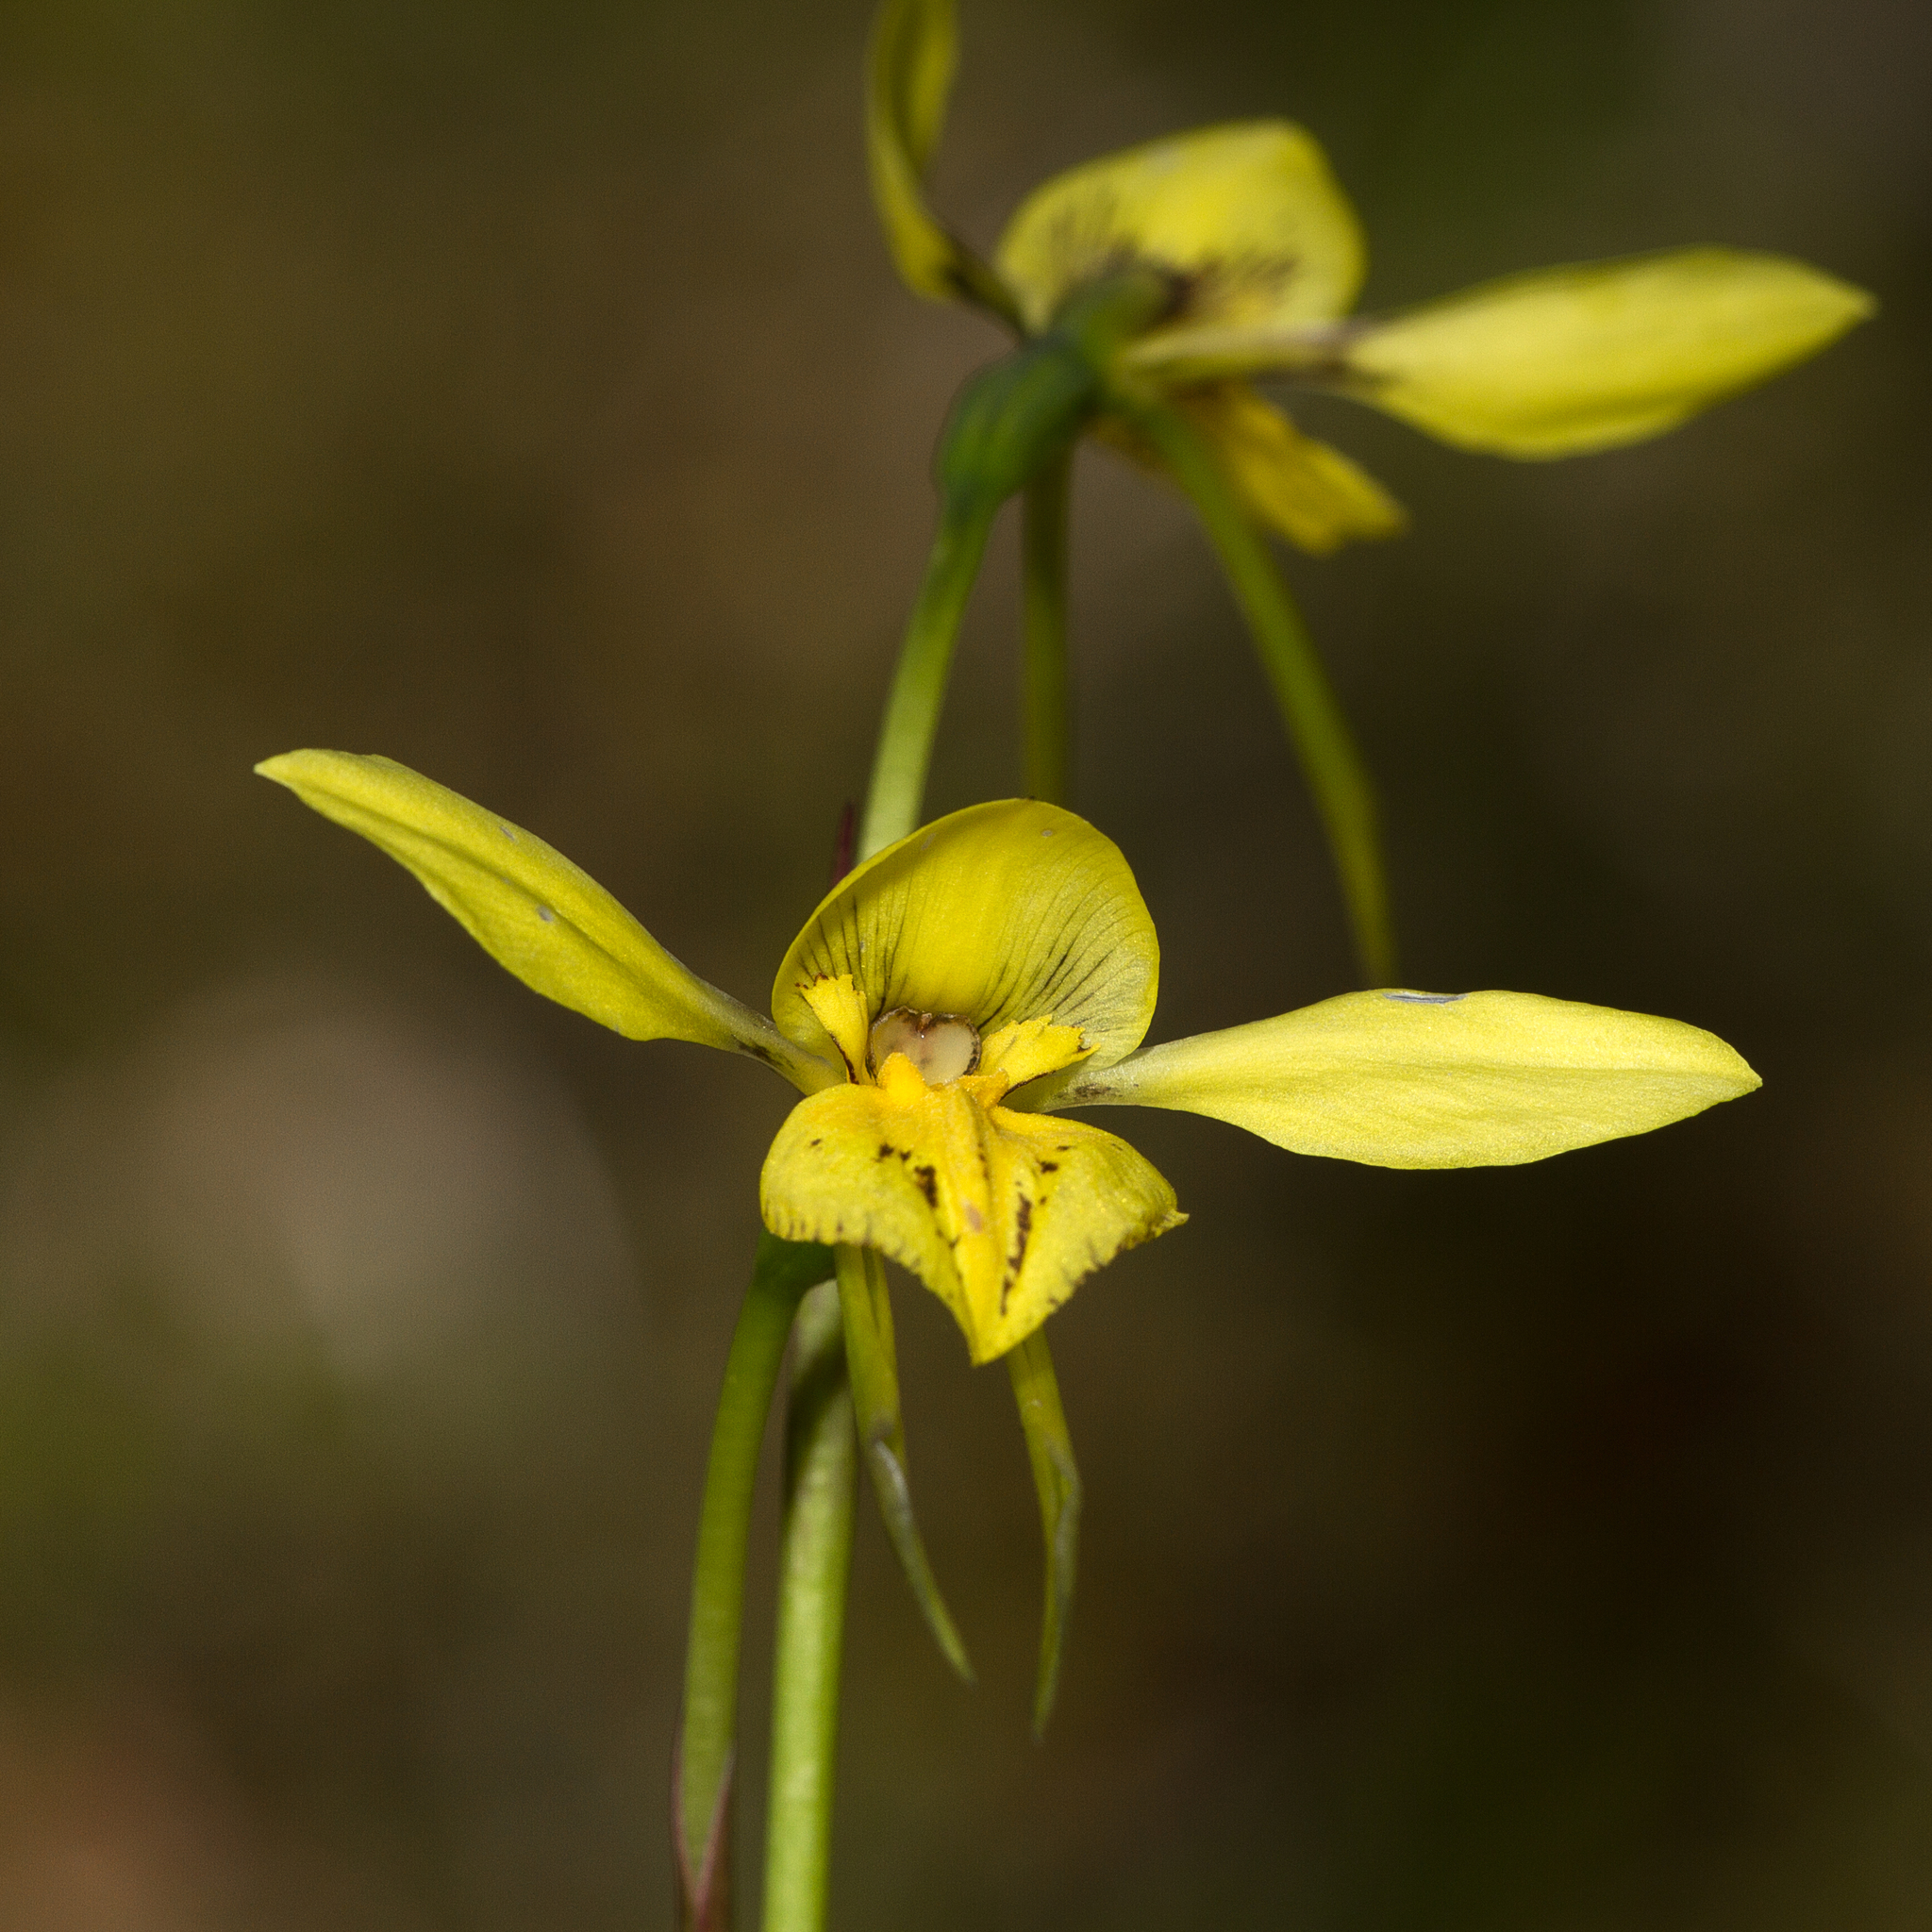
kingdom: Plantae
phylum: Tracheophyta
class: Liliopsida
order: Asparagales
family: Orchidaceae
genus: Diuris
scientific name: Diuris behrii
